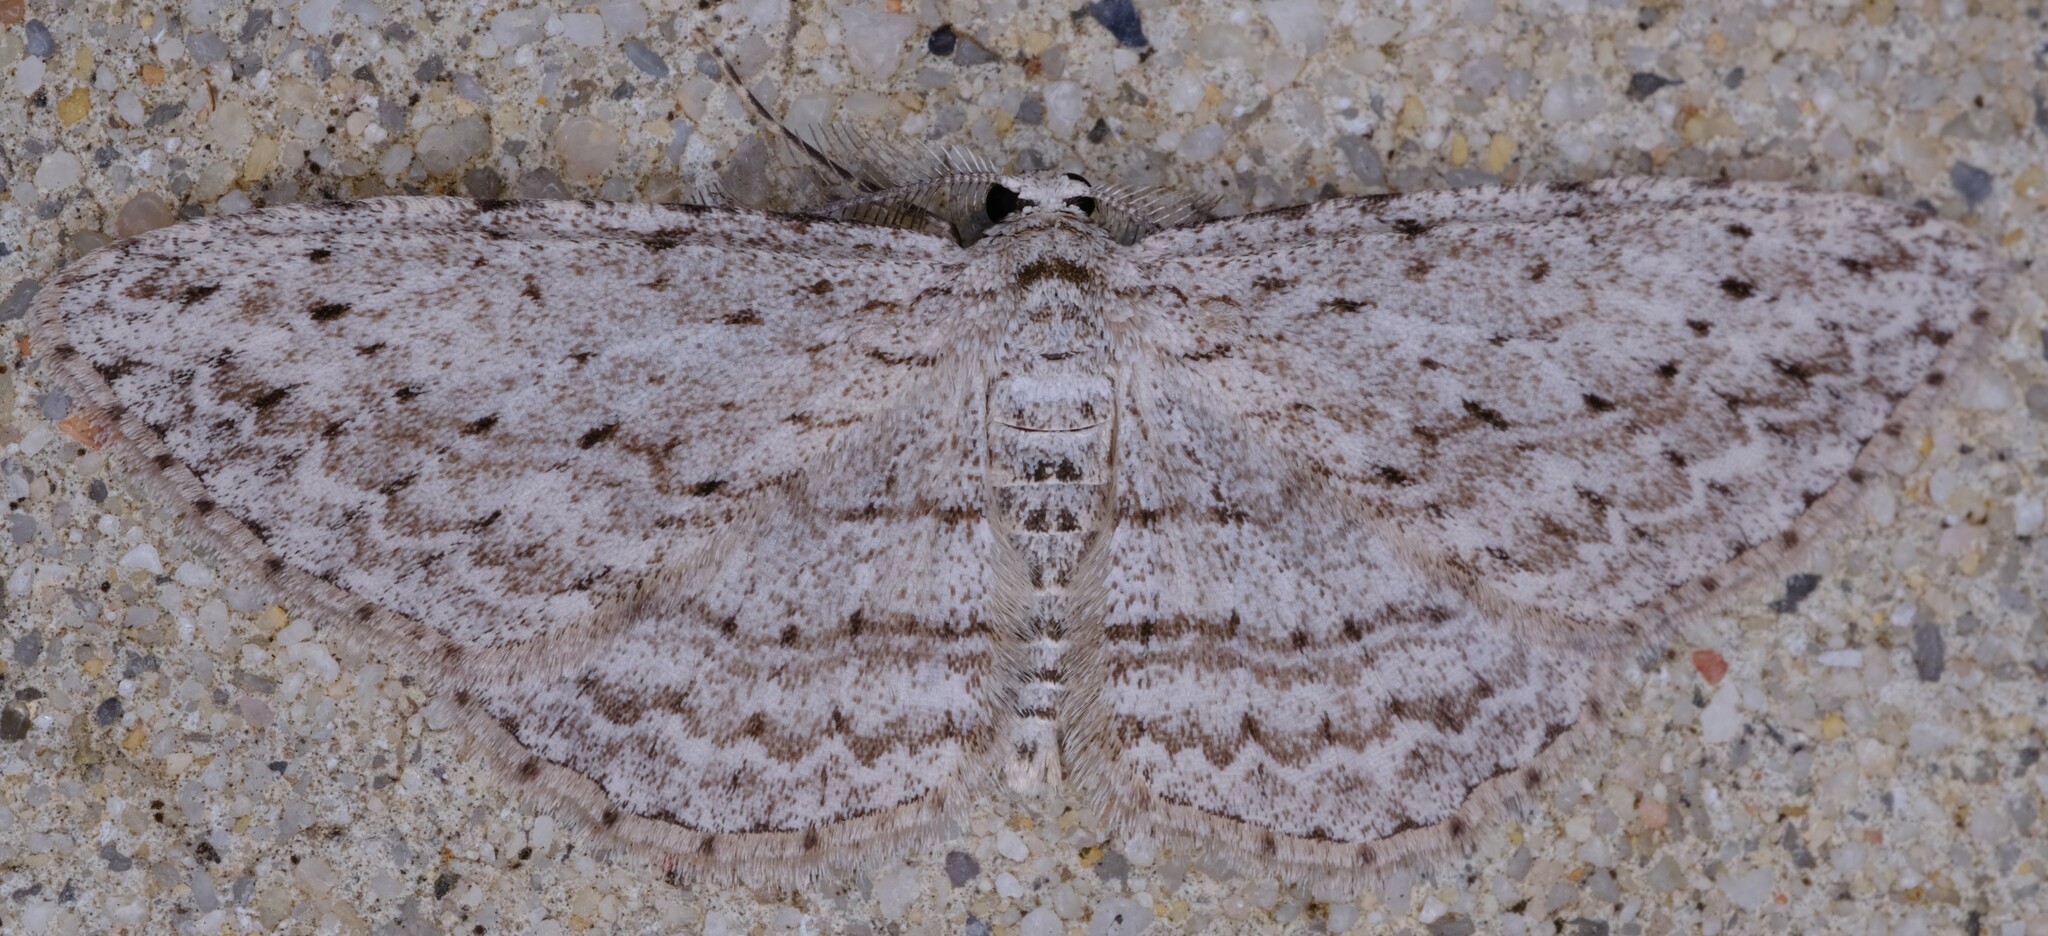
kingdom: Animalia
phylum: Arthropoda
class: Insecta
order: Lepidoptera
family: Geometridae
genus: Phelotis
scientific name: Phelotis cognata
